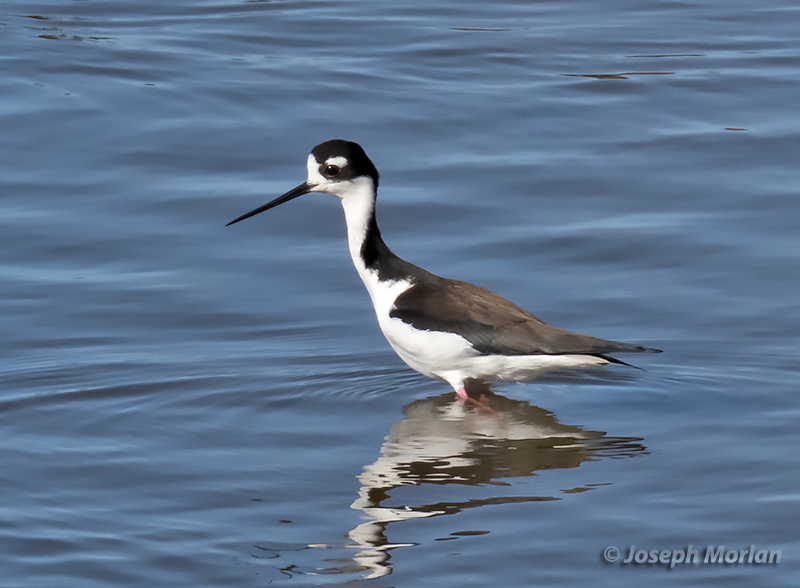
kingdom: Animalia
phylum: Chordata
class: Aves
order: Charadriiformes
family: Recurvirostridae
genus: Himantopus
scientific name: Himantopus mexicanus
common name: Black-necked stilt
